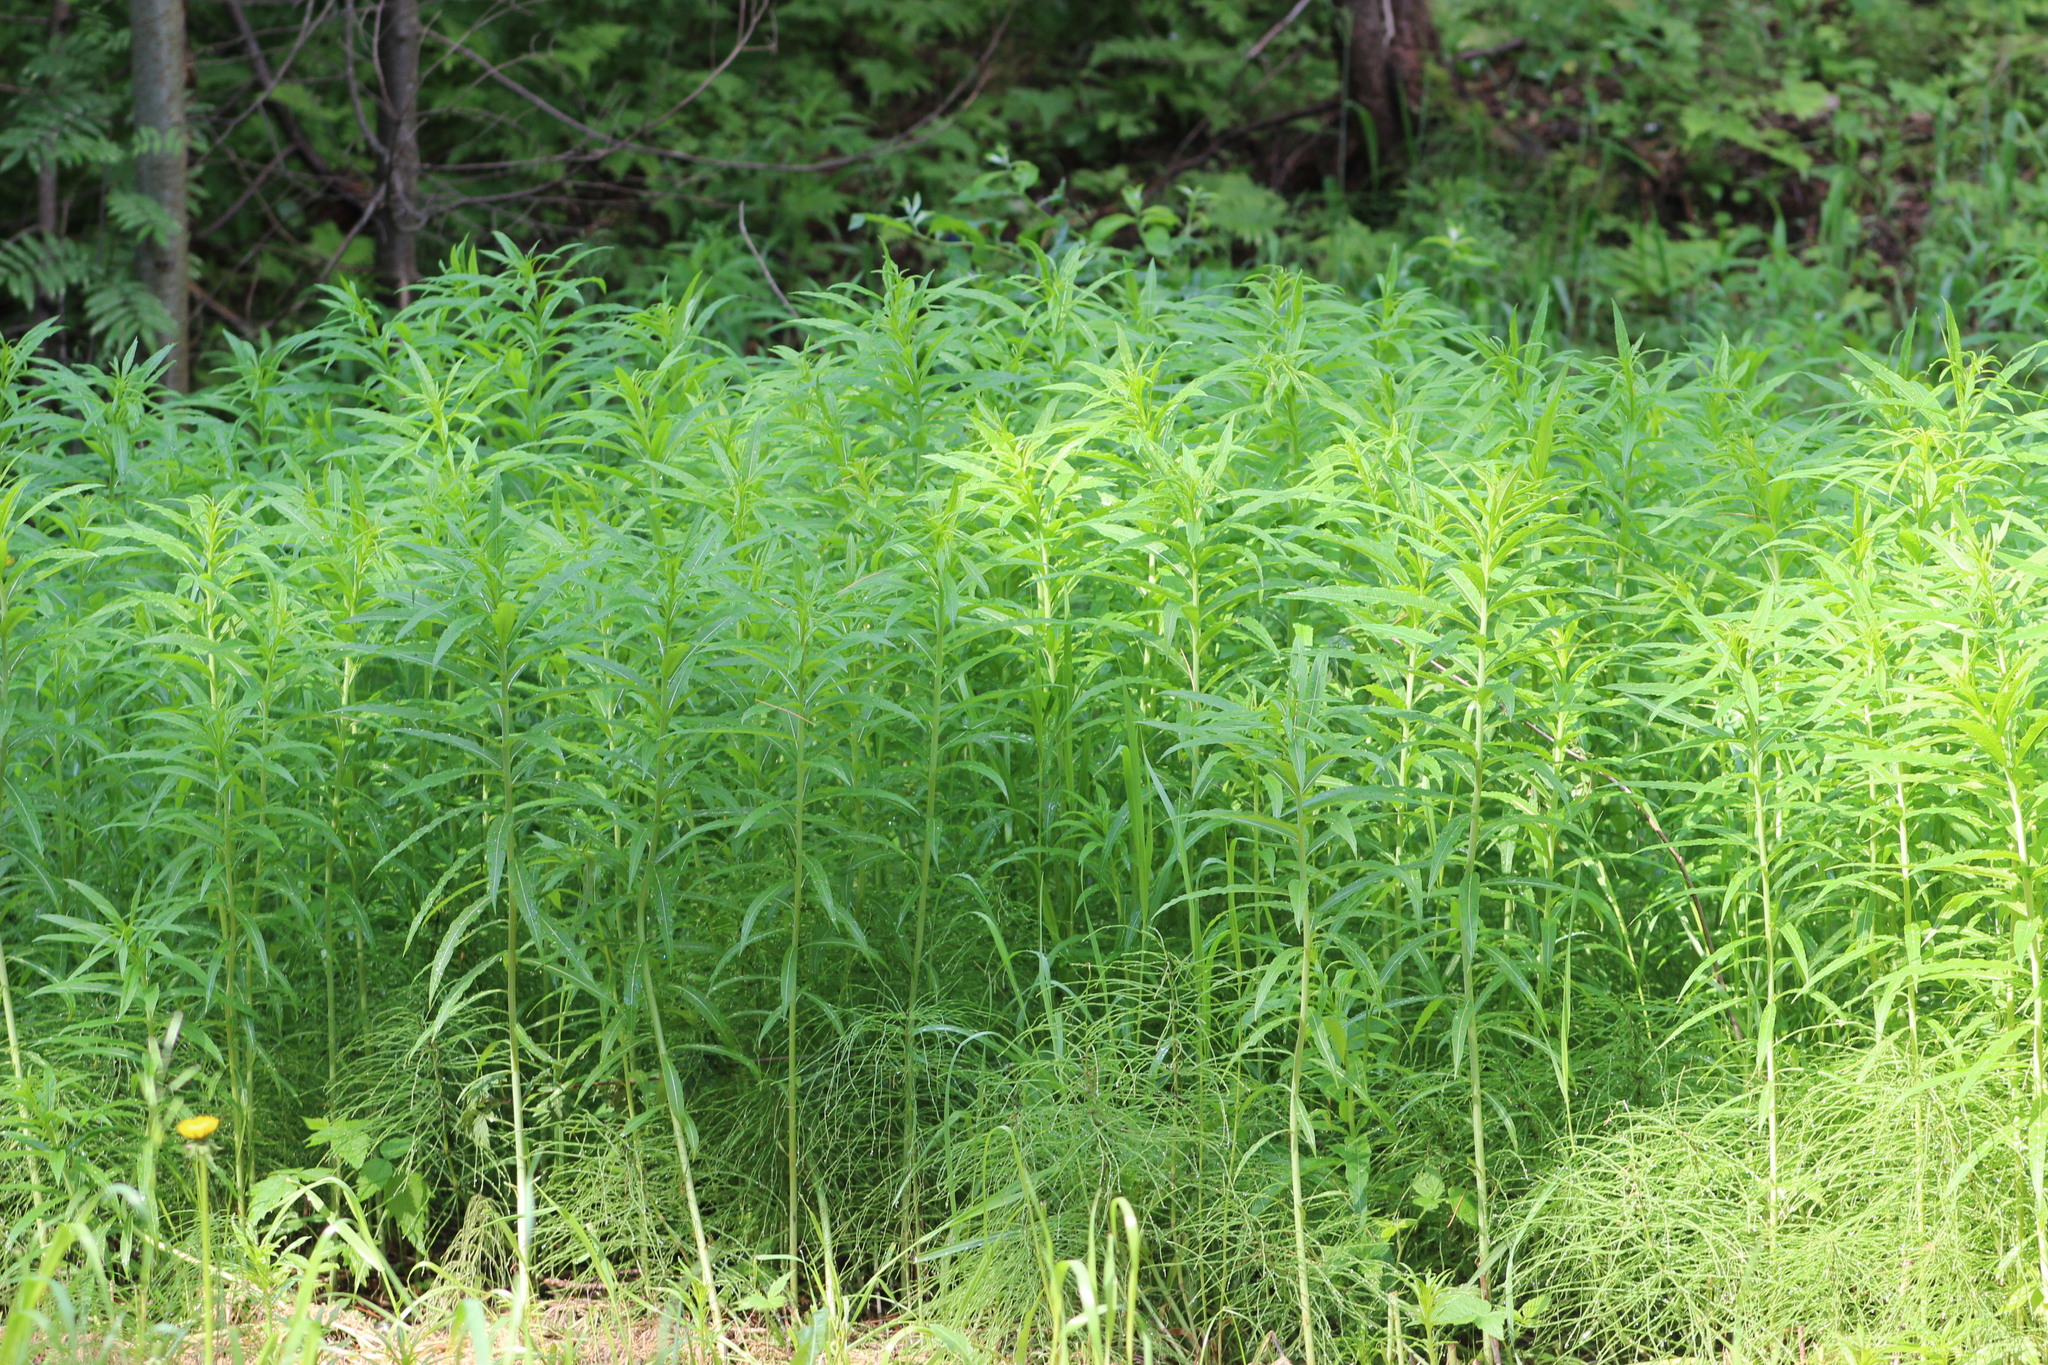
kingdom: Plantae
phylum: Tracheophyta
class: Magnoliopsida
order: Myrtales
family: Onagraceae
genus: Chamaenerion
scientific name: Chamaenerion angustifolium
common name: Fireweed
